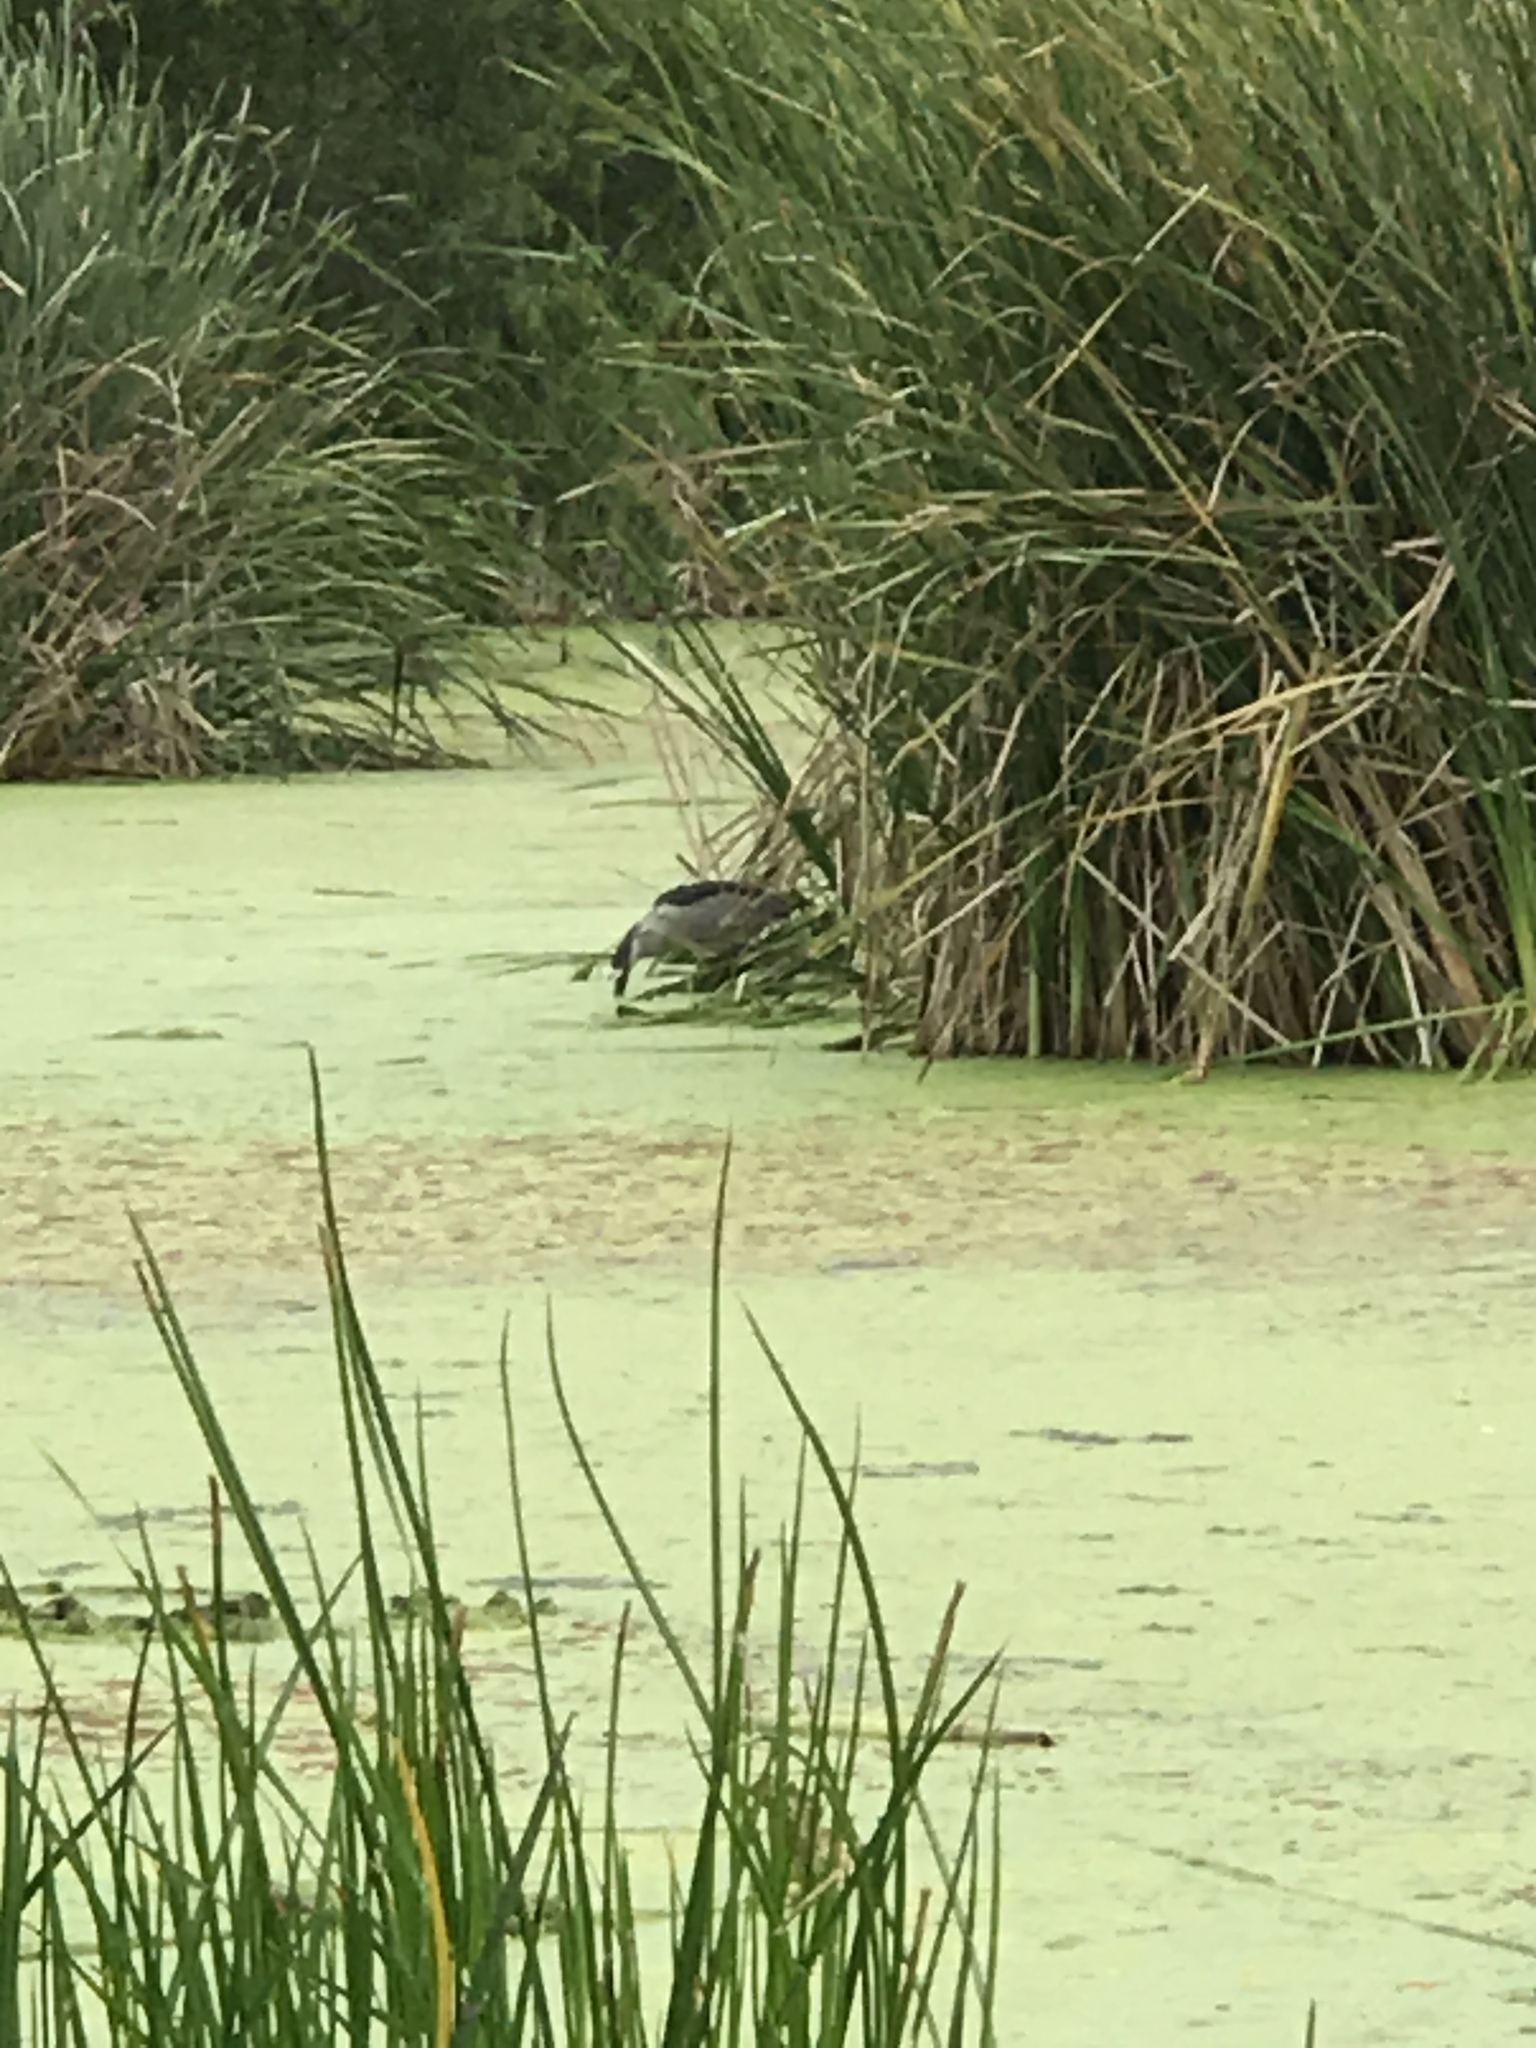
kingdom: Animalia
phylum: Chordata
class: Aves
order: Pelecaniformes
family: Ardeidae
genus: Nycticorax
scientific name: Nycticorax nycticorax
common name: Black-crowned night heron
